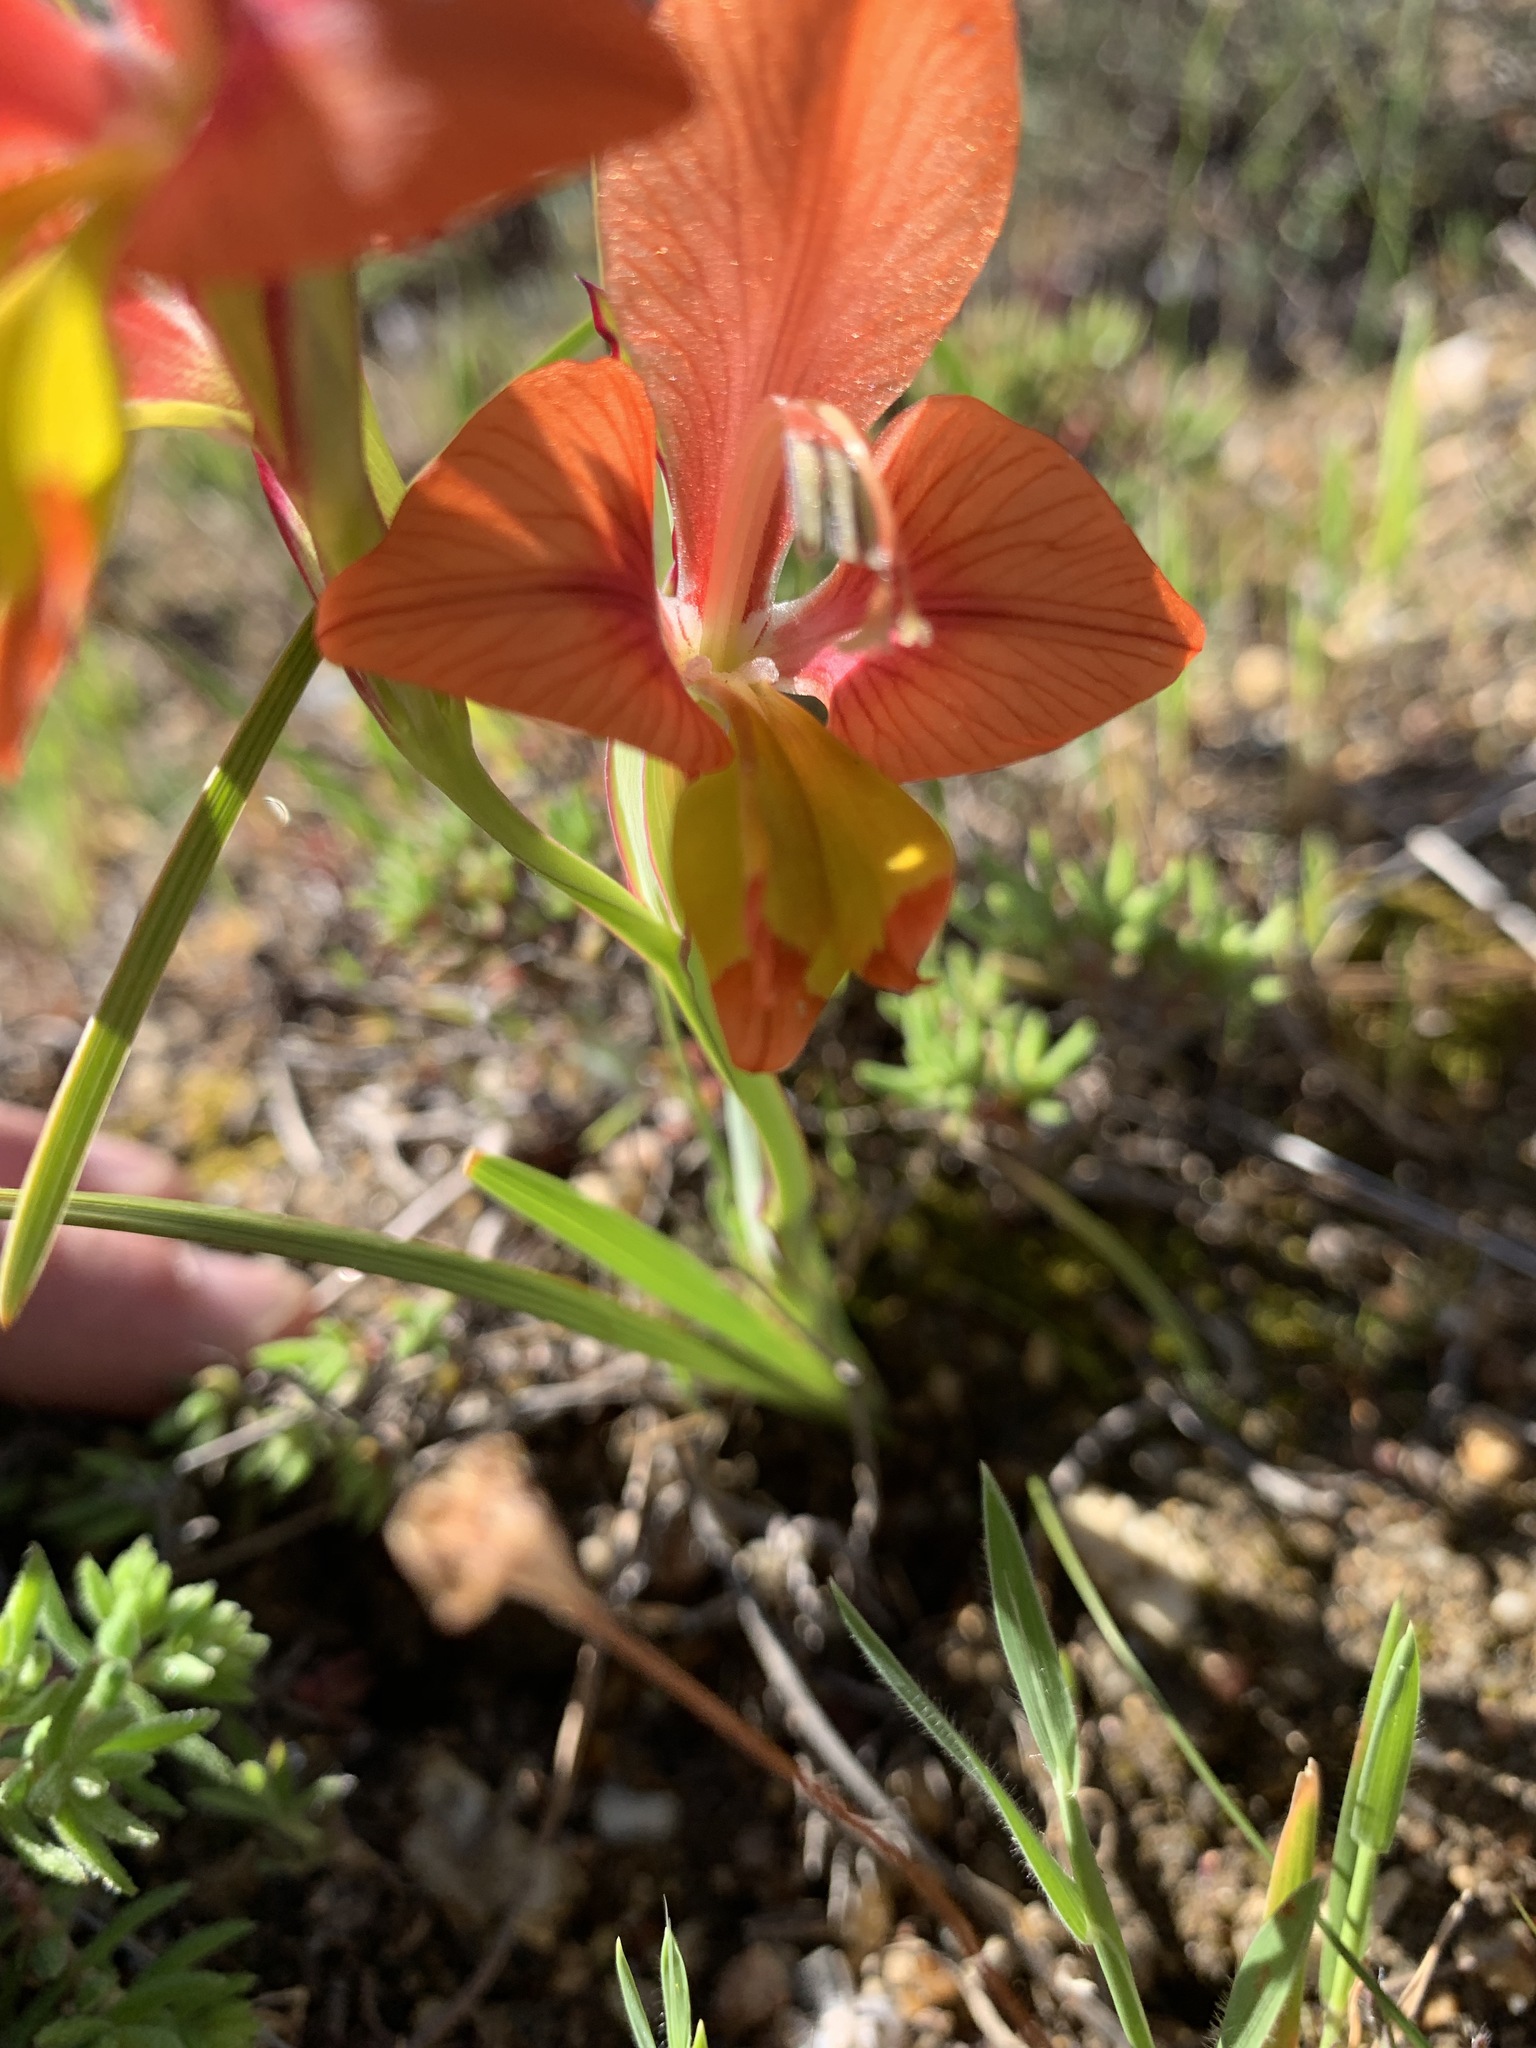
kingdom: Plantae
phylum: Tracheophyta
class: Liliopsida
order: Asparagales
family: Iridaceae
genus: Gladiolus
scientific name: Gladiolus alatus
